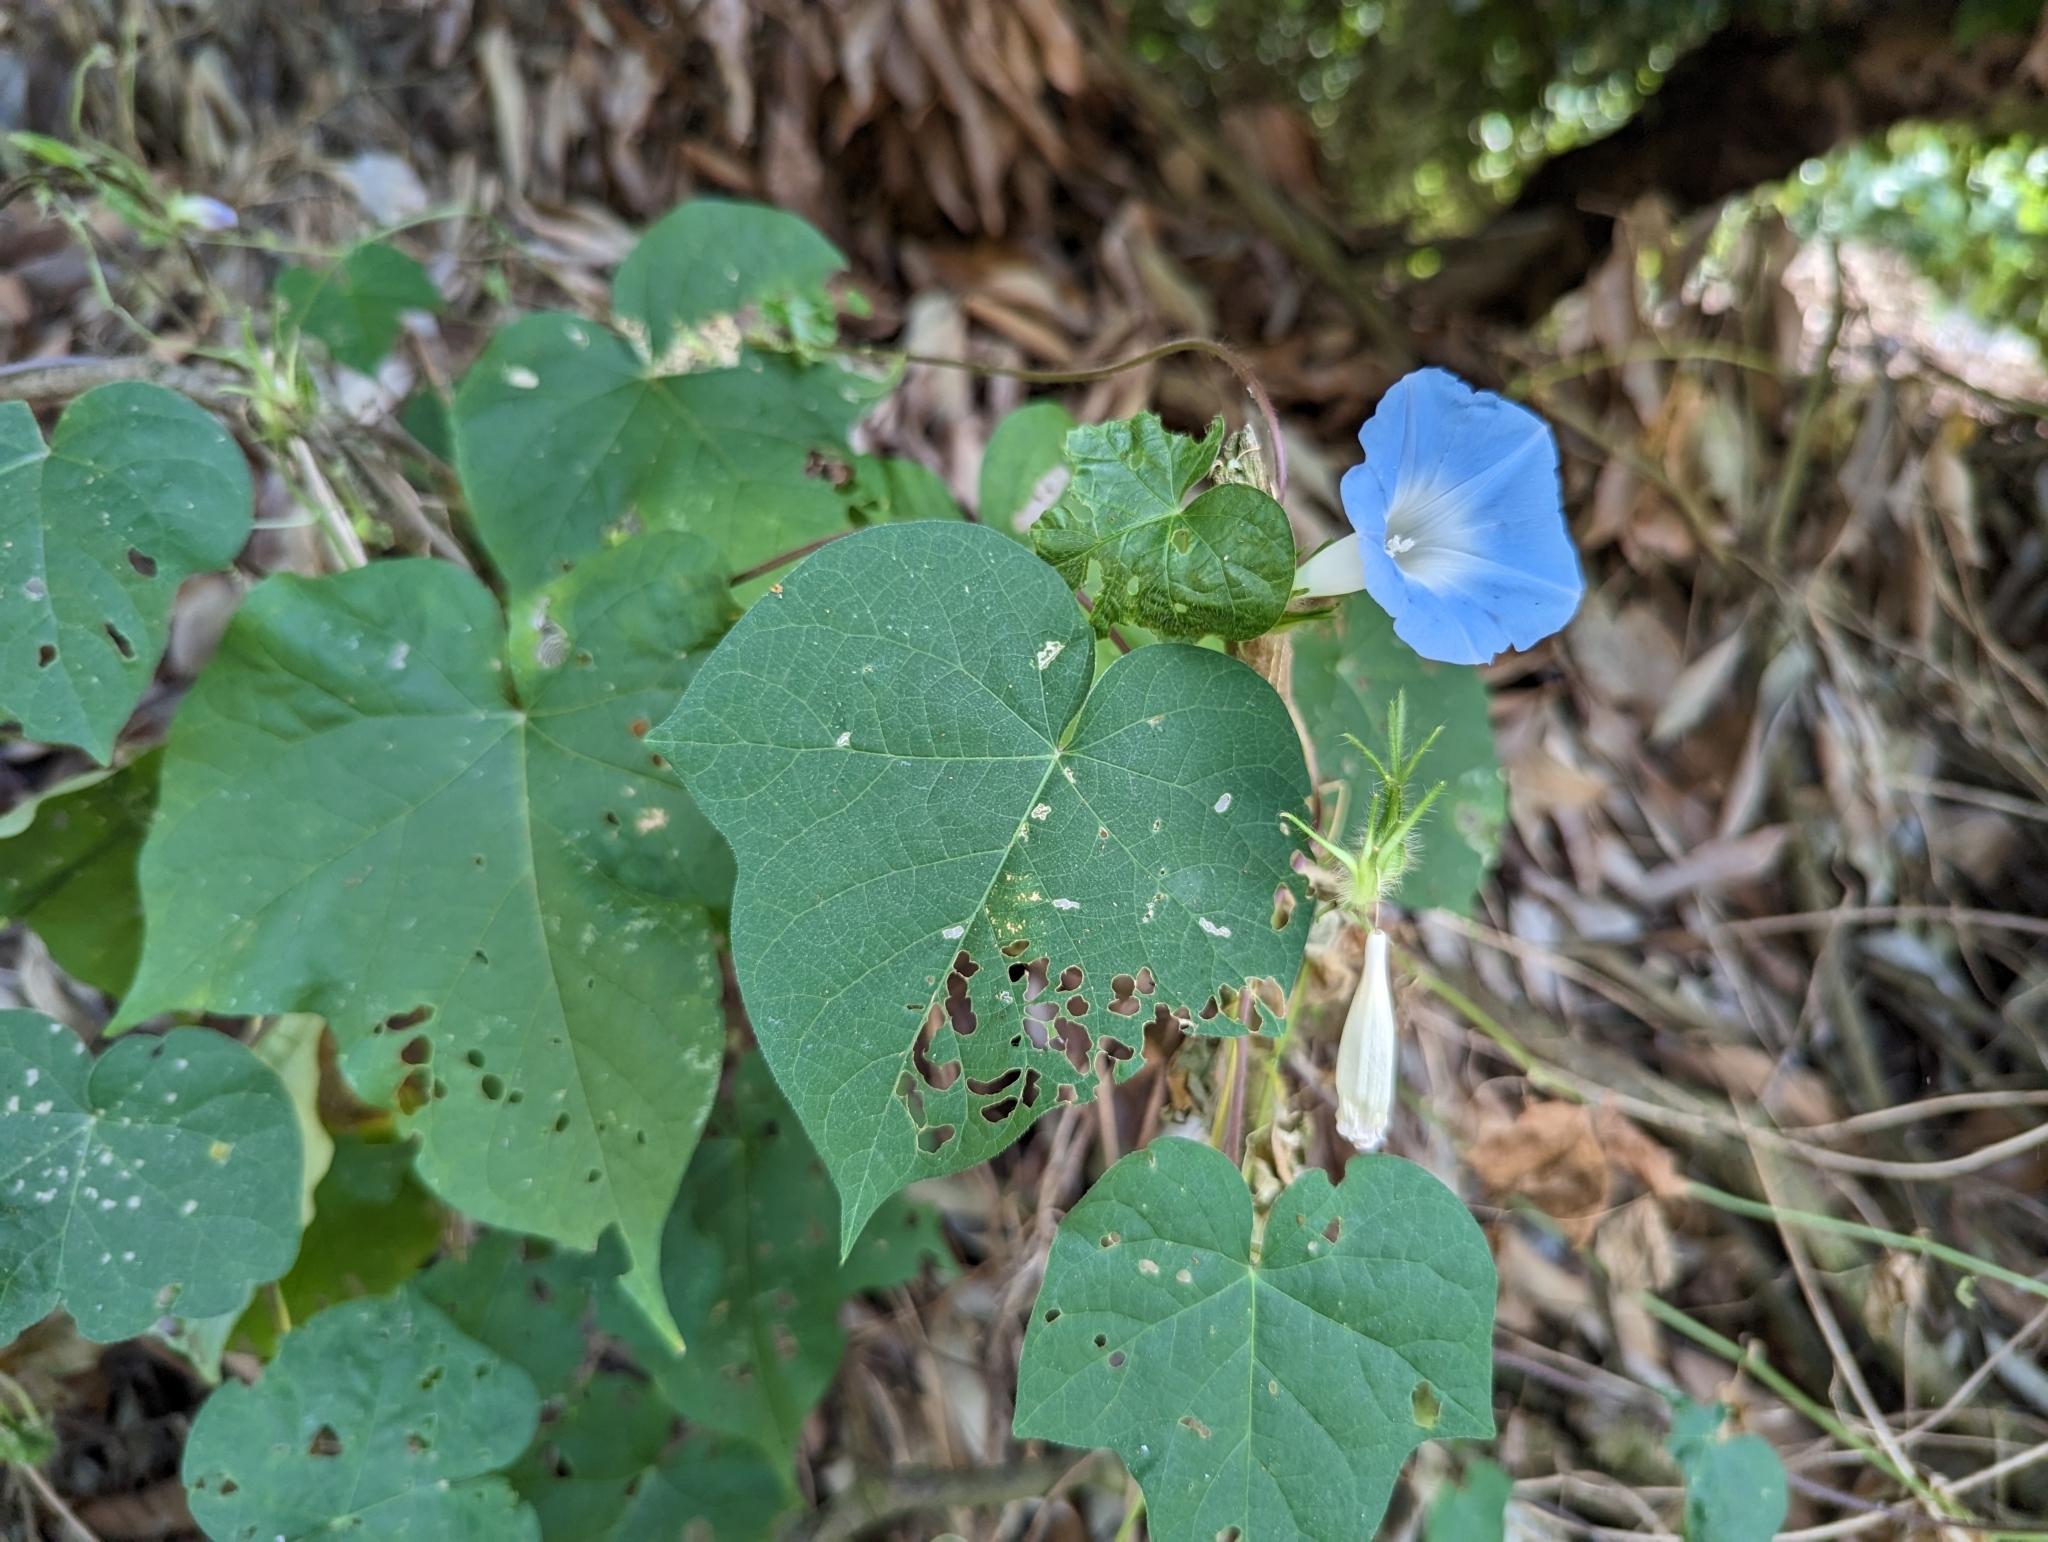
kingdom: Plantae
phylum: Tracheophyta
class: Magnoliopsida
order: Solanales
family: Convolvulaceae
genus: Ipomoea
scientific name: Ipomoea nil
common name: Japanese morning-glory
